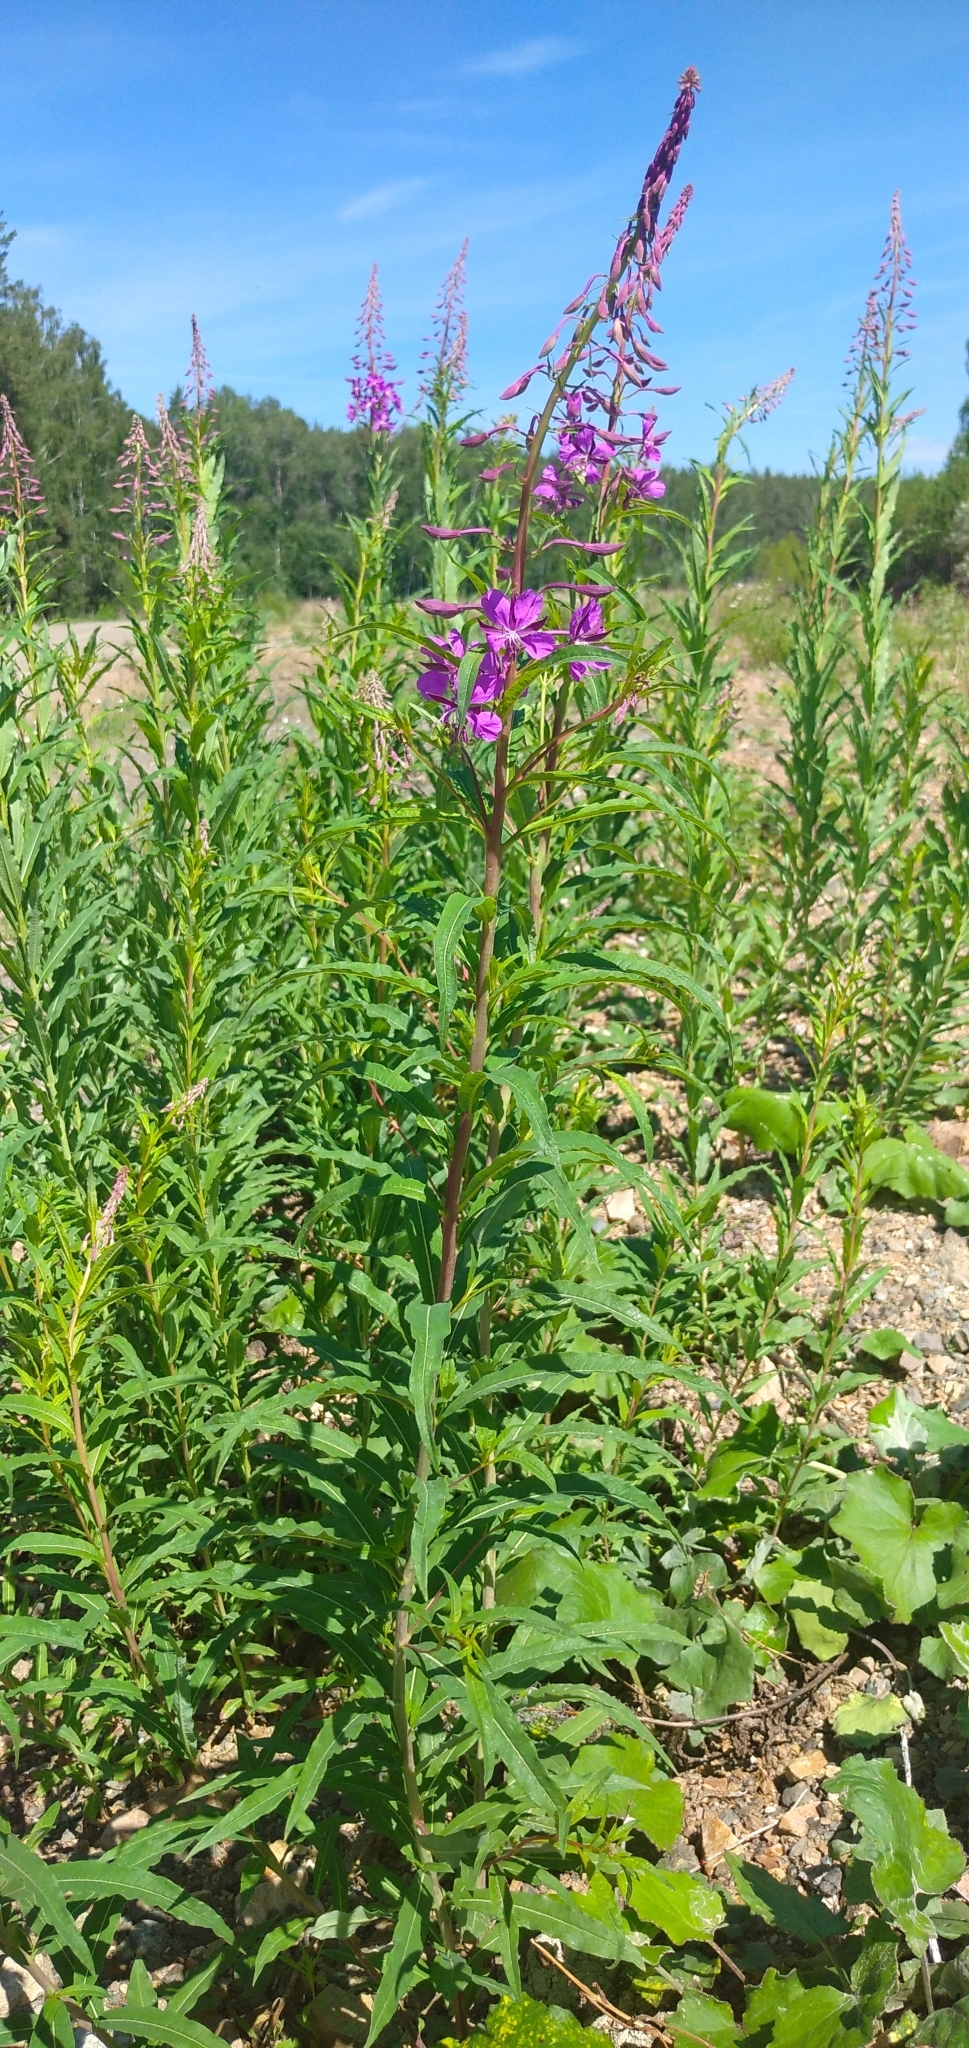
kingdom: Plantae
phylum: Tracheophyta
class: Magnoliopsida
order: Myrtales
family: Onagraceae
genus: Chamaenerion
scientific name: Chamaenerion angustifolium
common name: Fireweed
